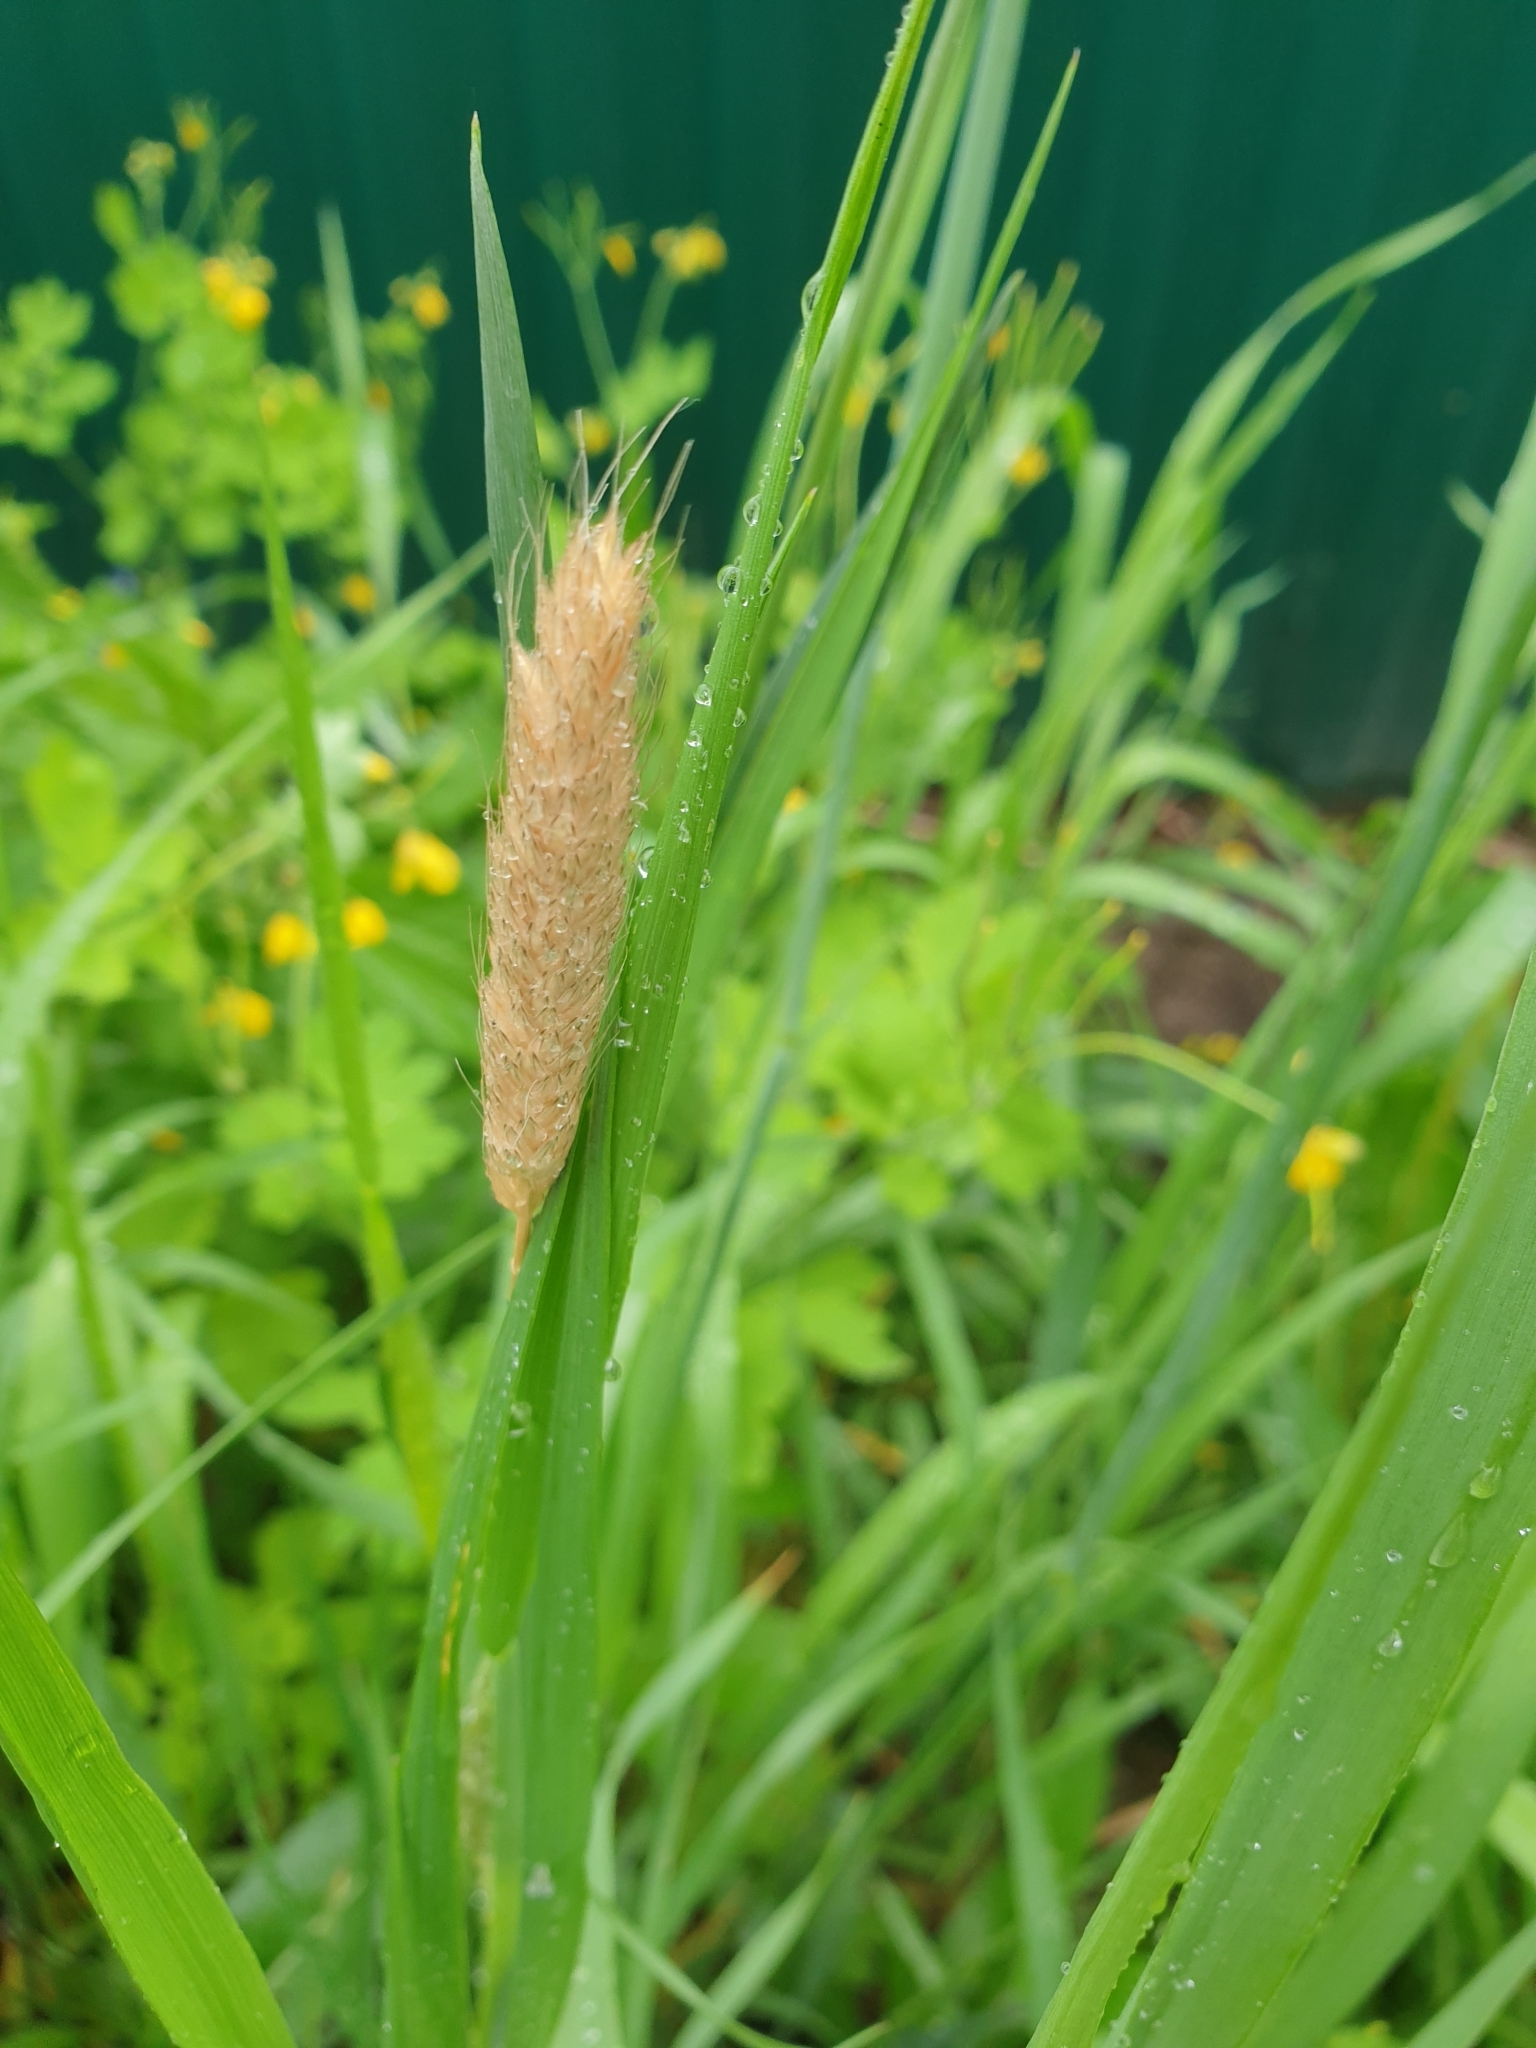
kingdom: Plantae
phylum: Tracheophyta
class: Liliopsida
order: Poales
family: Poaceae
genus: Alopecurus
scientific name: Alopecurus pratensis
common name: Meadow foxtail
